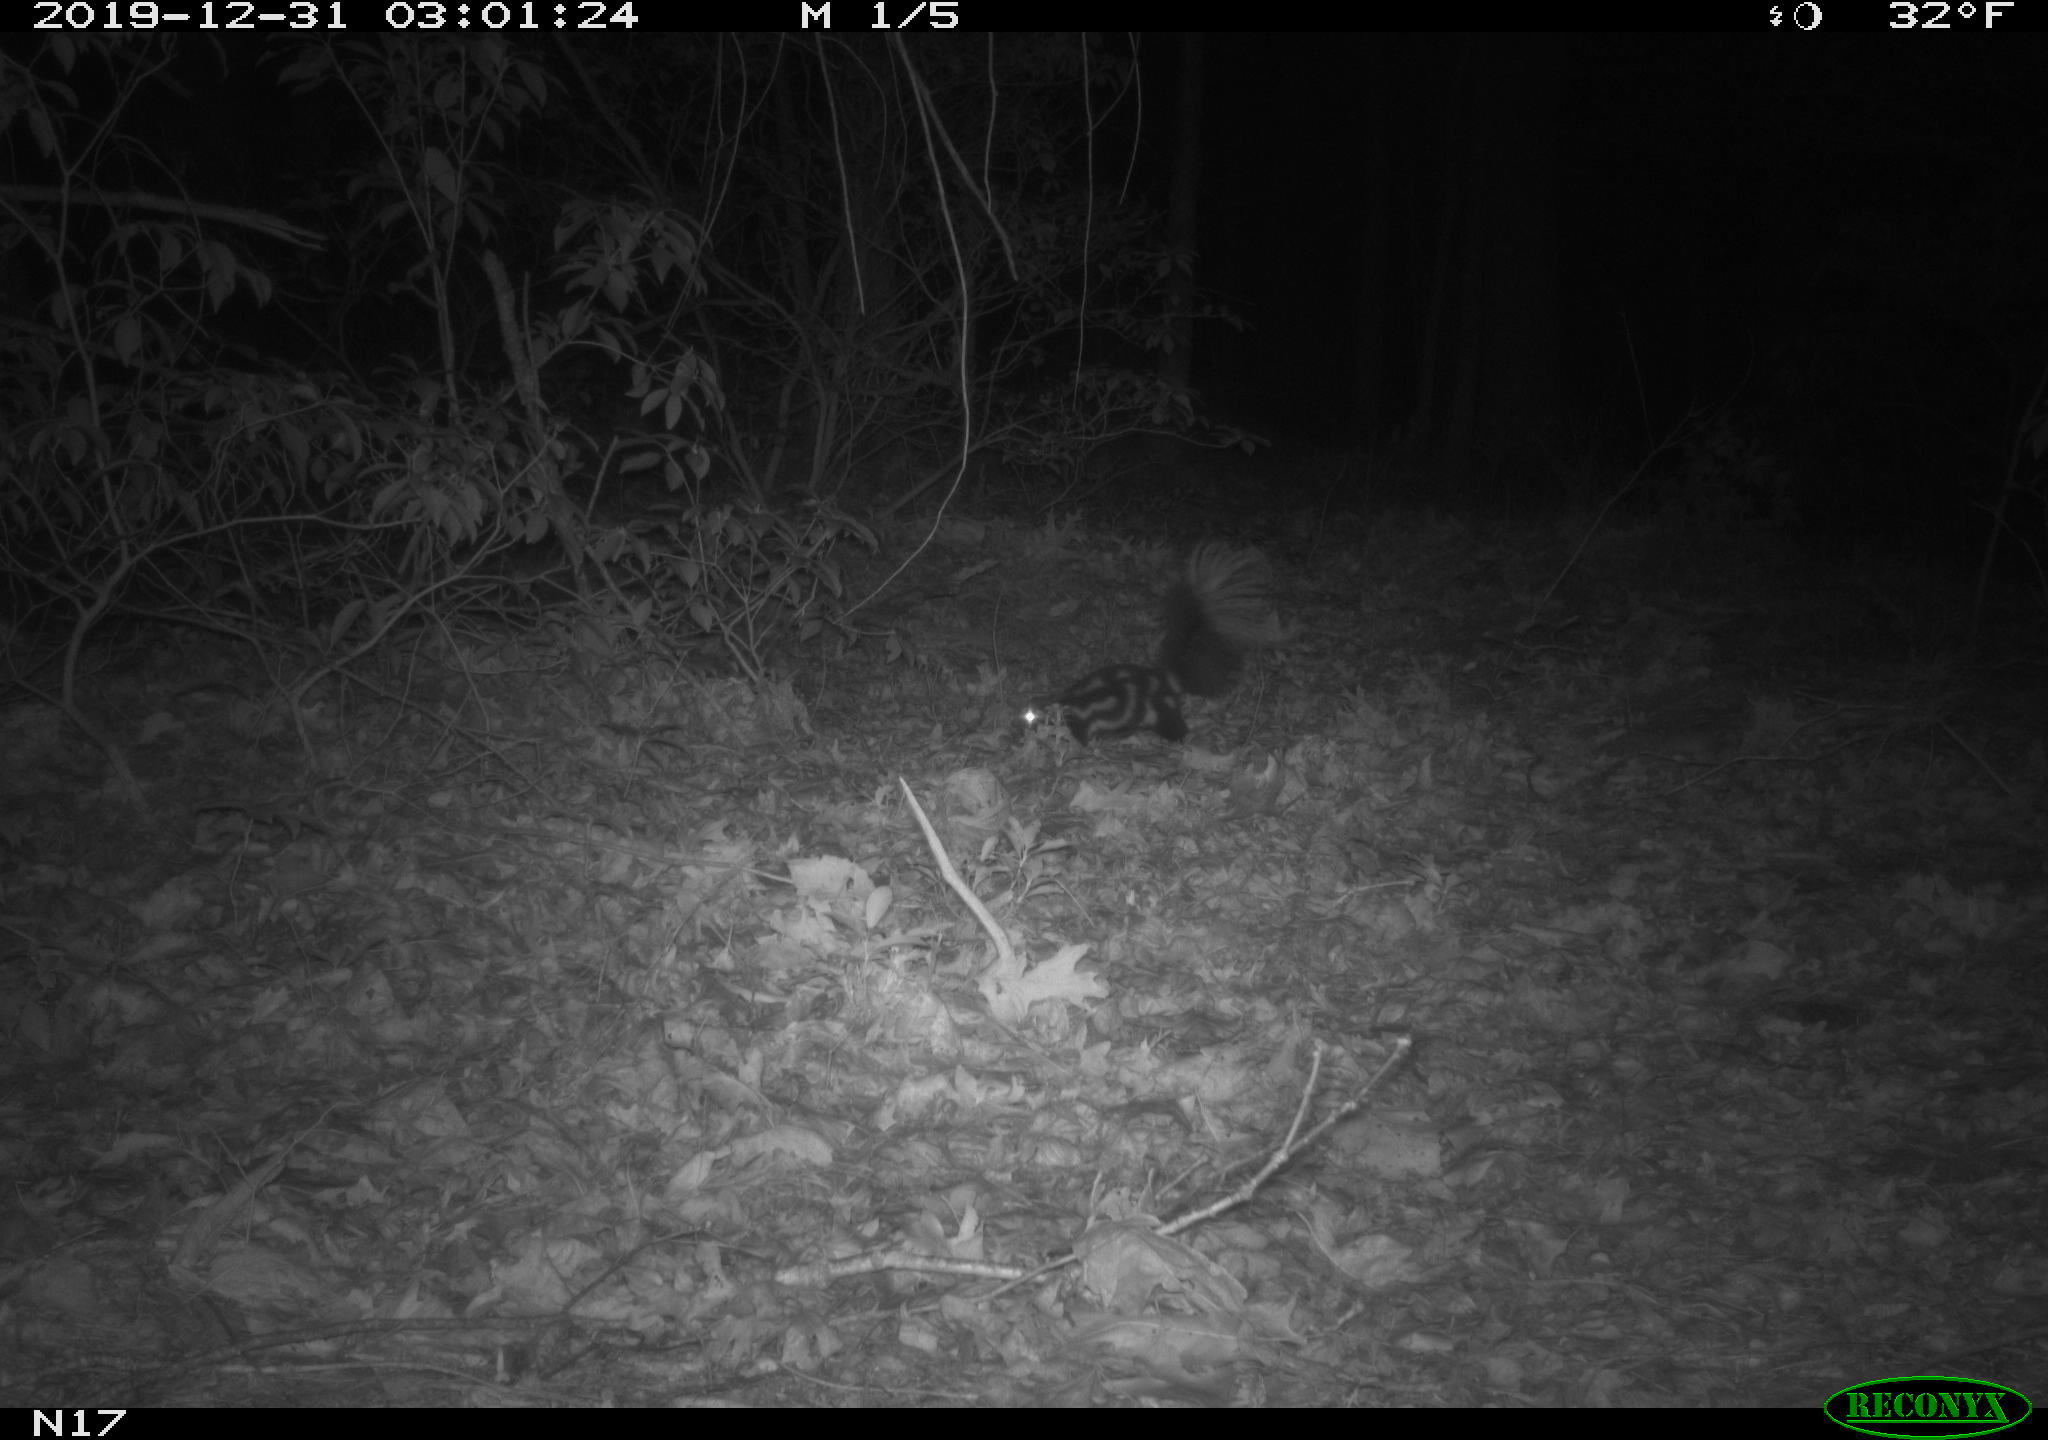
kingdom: Animalia
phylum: Chordata
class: Mammalia
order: Carnivora
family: Mephitidae
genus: Spilogale
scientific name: Spilogale putorius
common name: Eastern spotted skunk
